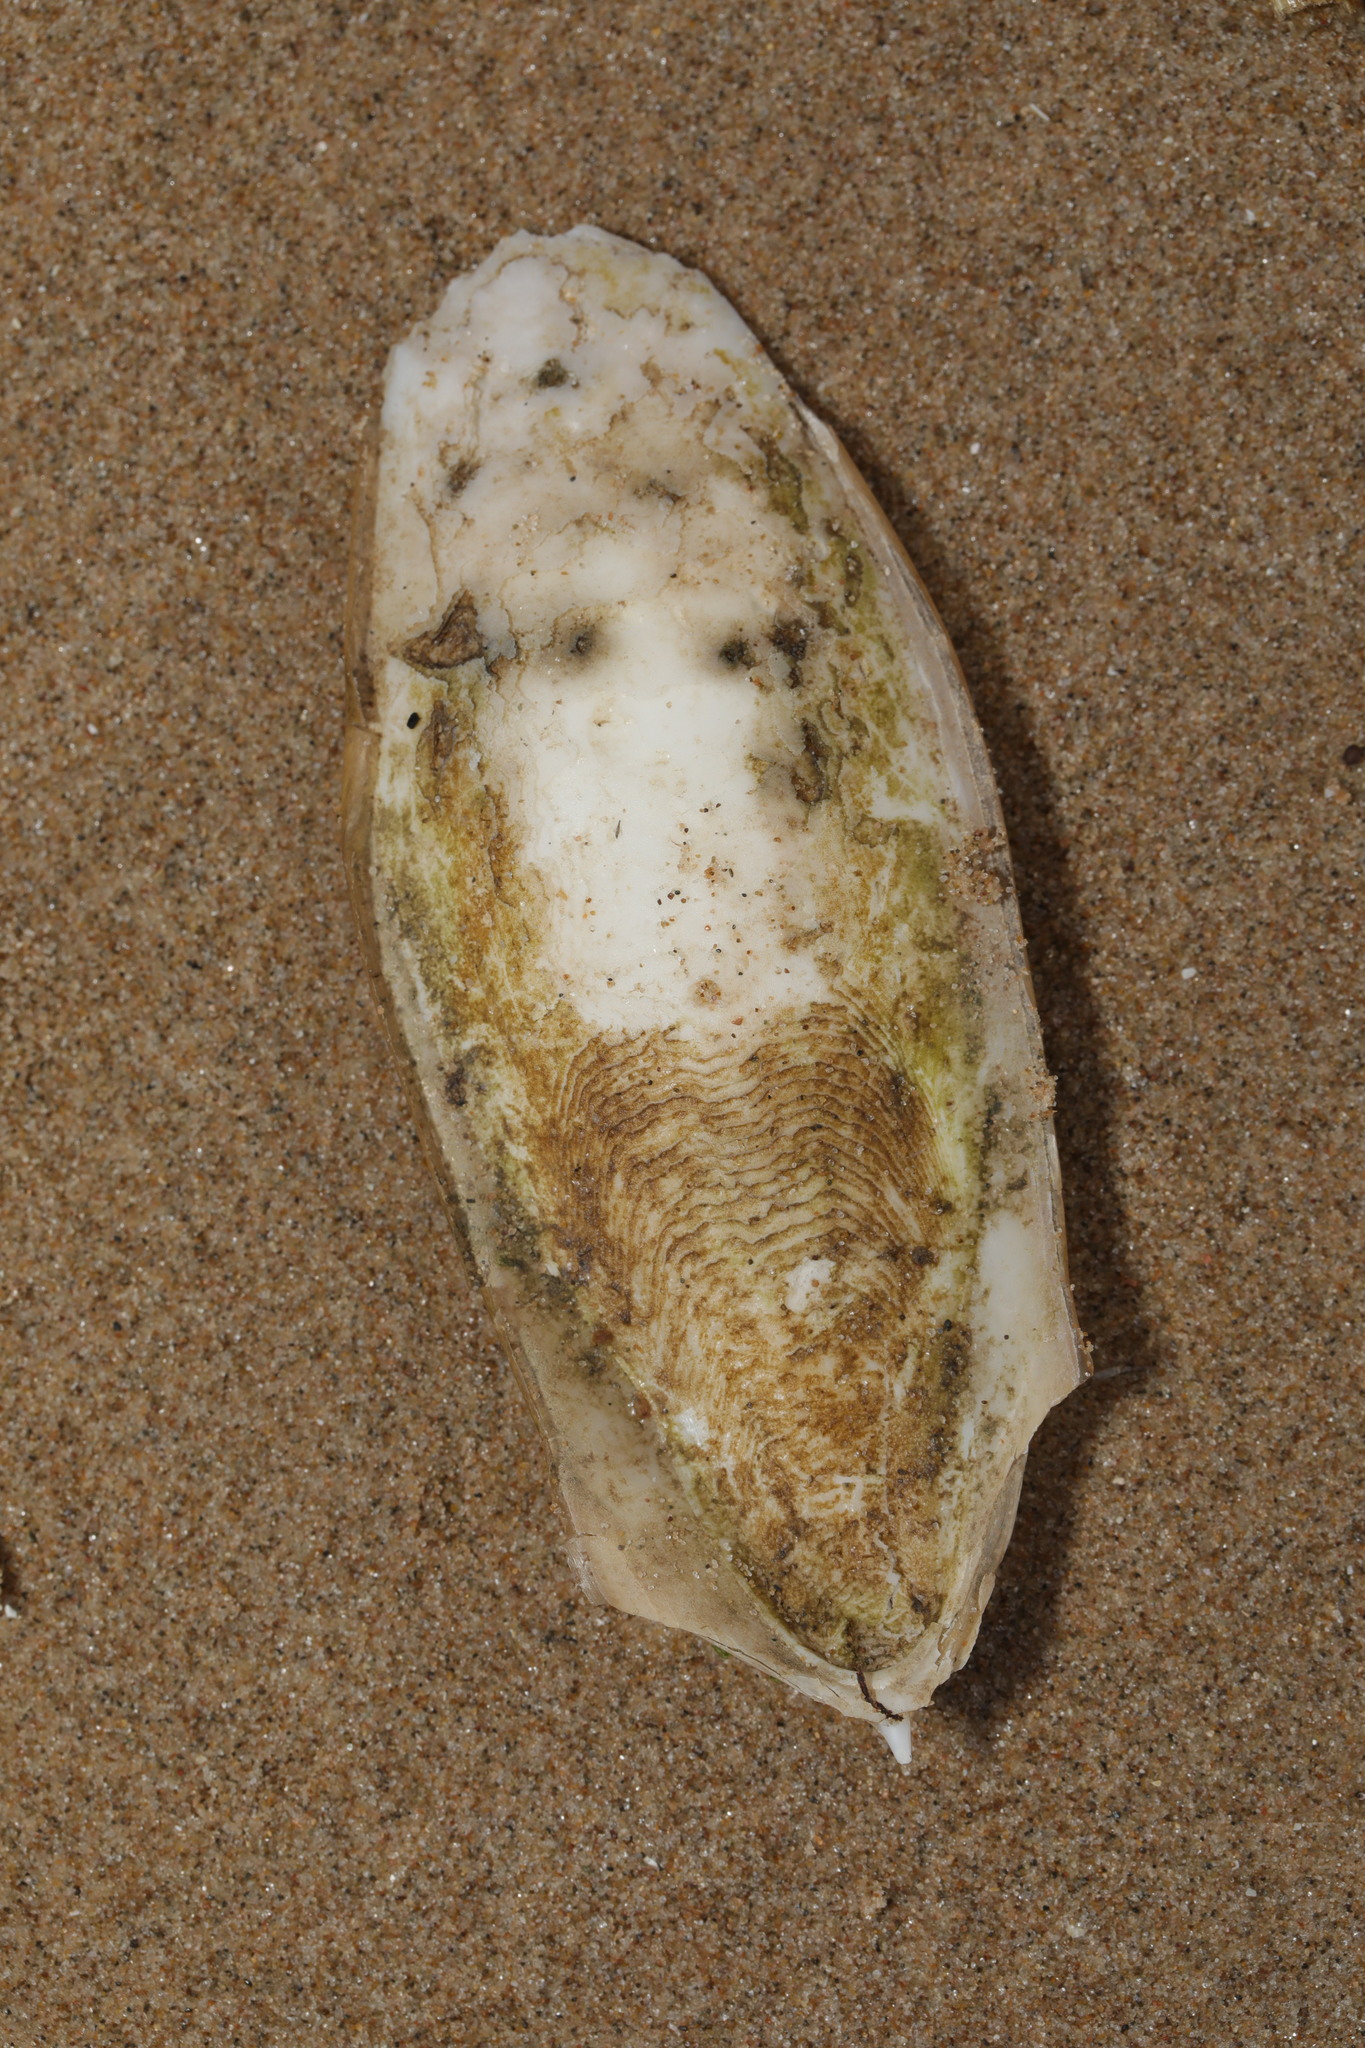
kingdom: Animalia
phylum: Mollusca
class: Cephalopoda
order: Sepiida
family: Sepiidae
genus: Sepia
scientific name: Sepia officinalis
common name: Common cuttlefish
